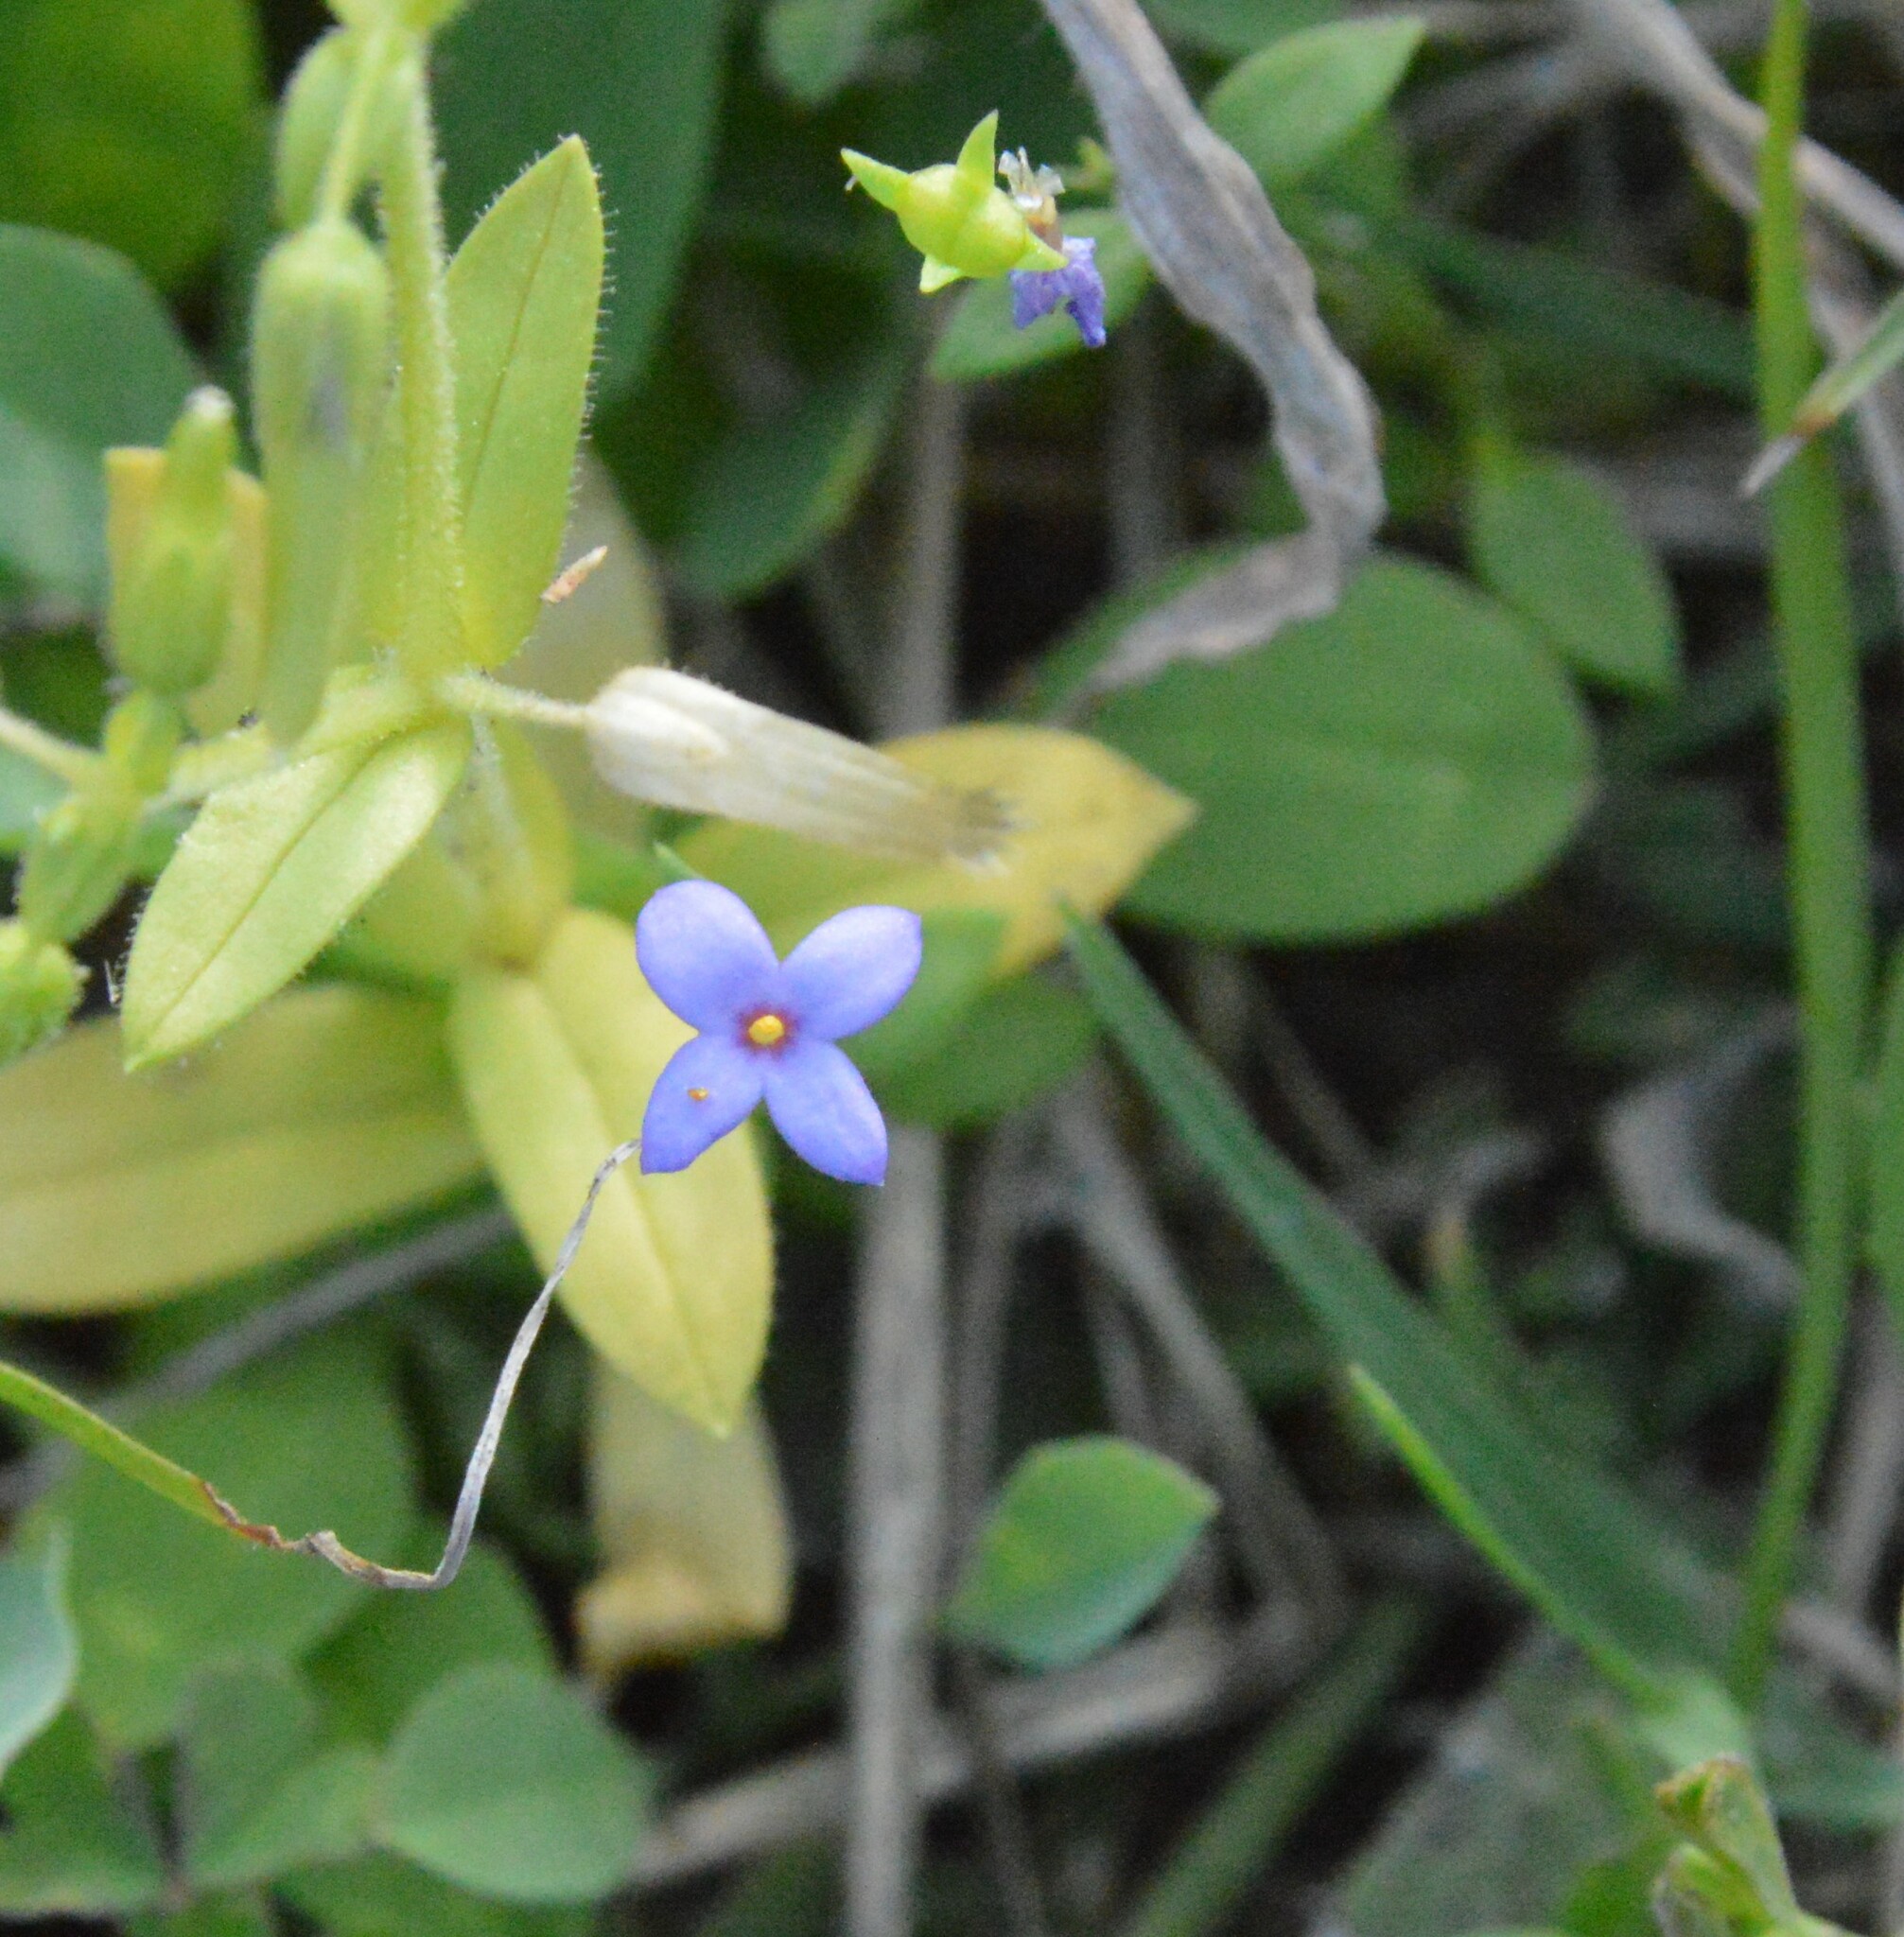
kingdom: Plantae
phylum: Tracheophyta
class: Magnoliopsida
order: Gentianales
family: Rubiaceae
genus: Houstonia
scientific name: Houstonia pusilla
